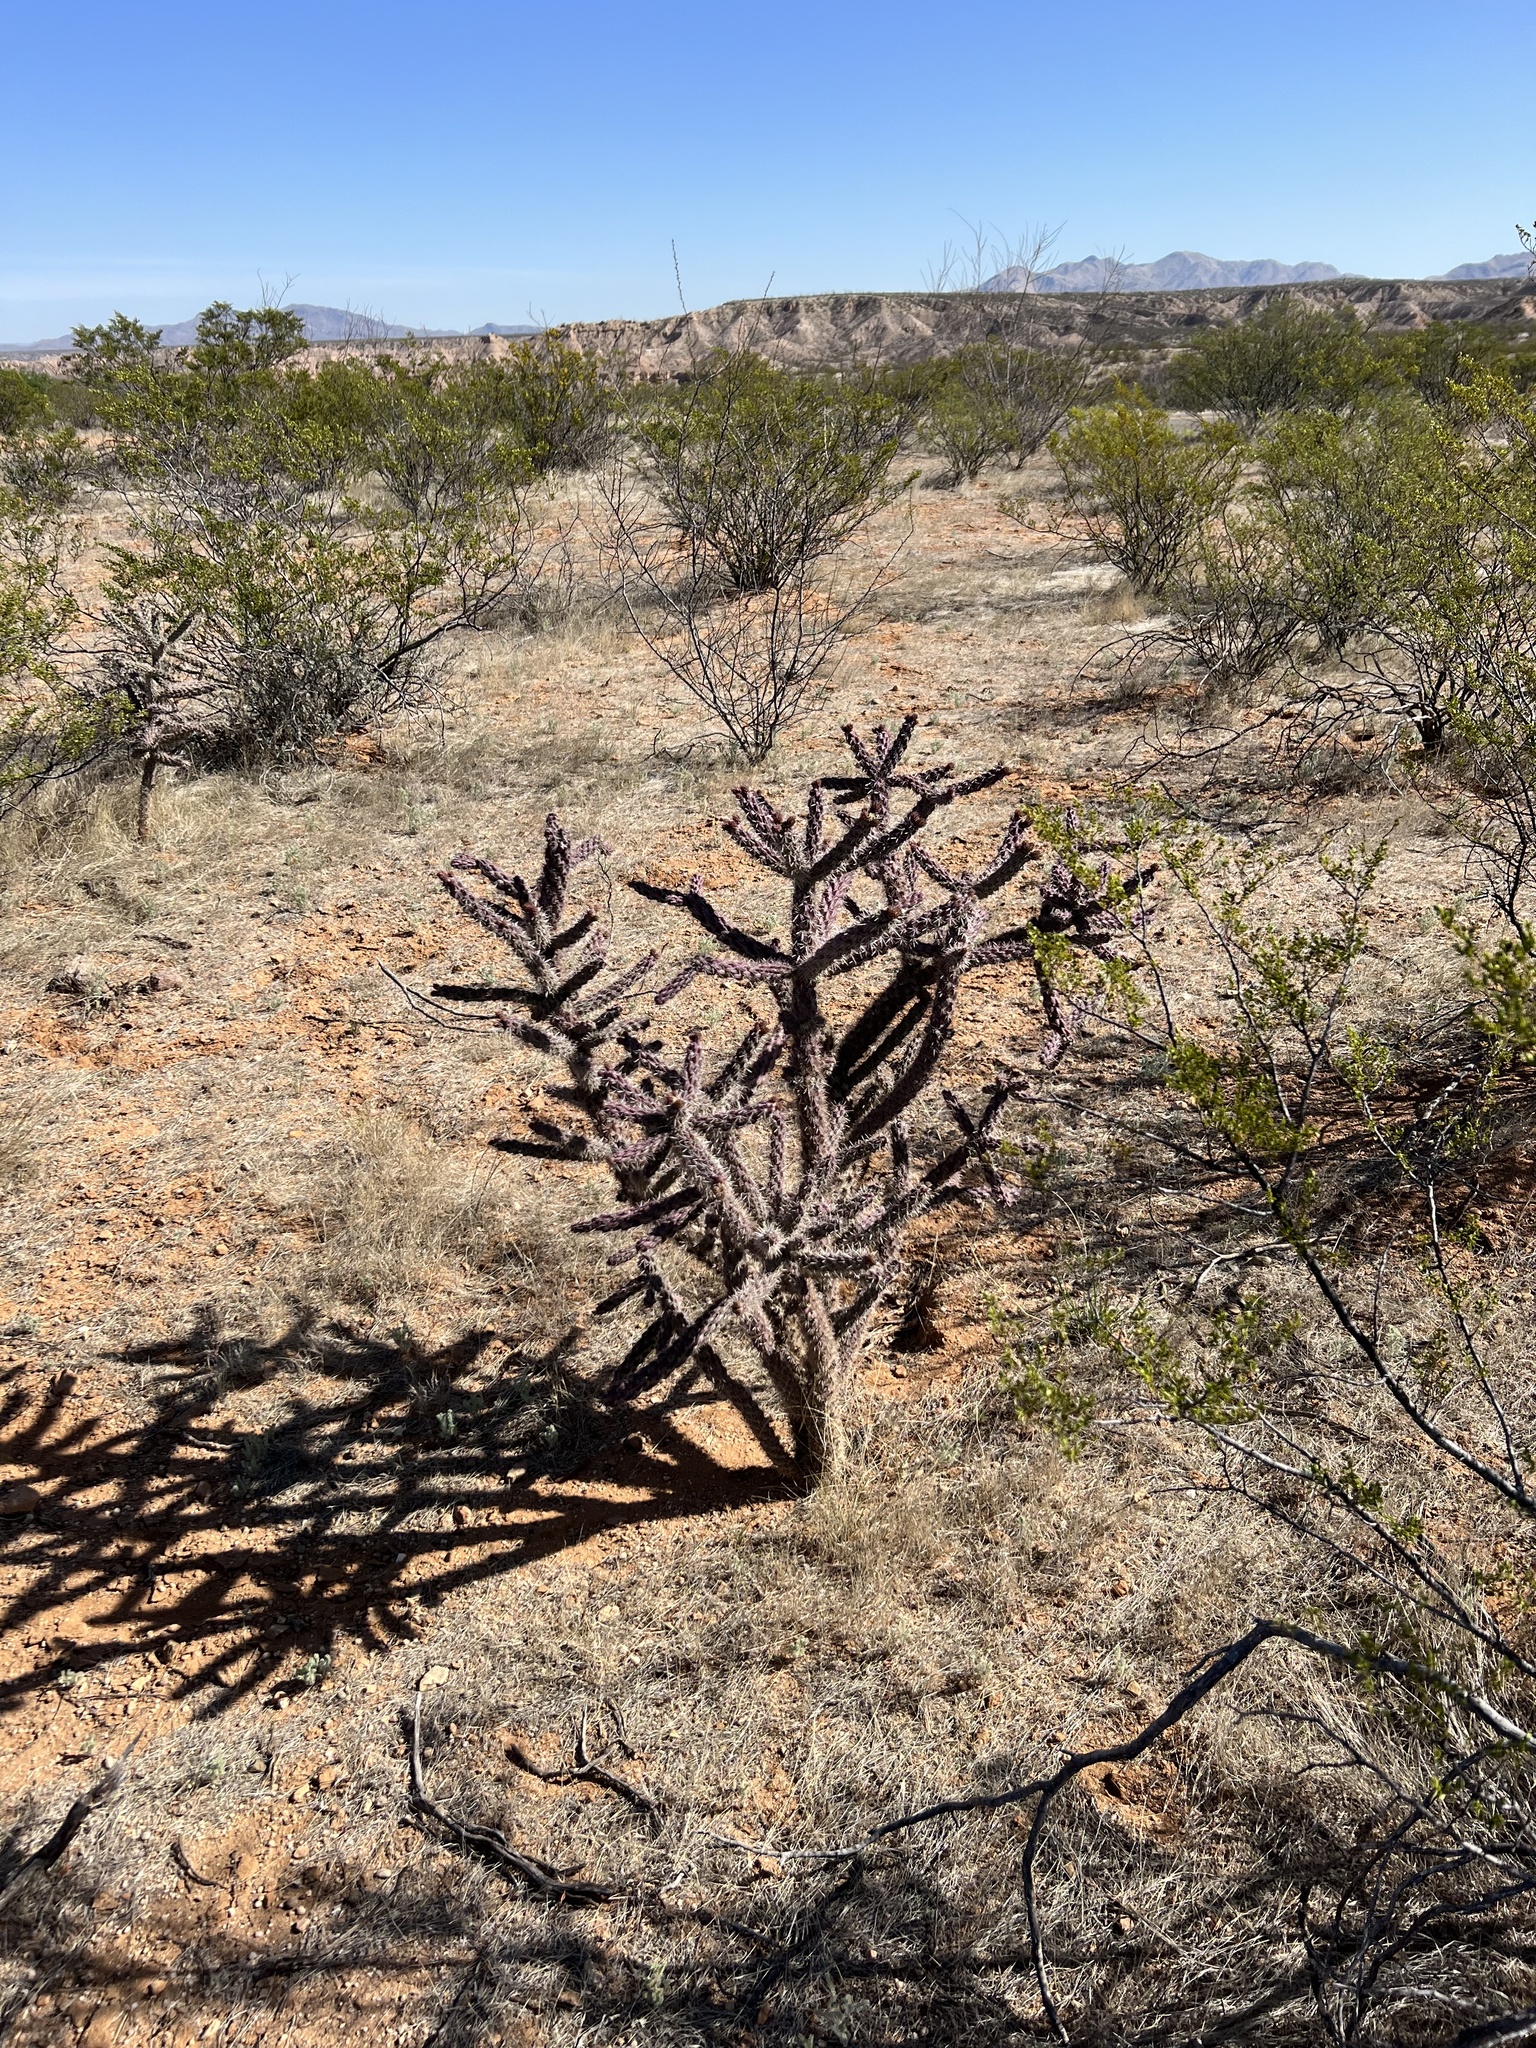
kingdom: Plantae
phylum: Tracheophyta
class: Magnoliopsida
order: Caryophyllales
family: Cactaceae
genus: Cylindropuntia
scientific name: Cylindropuntia imbricata
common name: Candelabrum cactus
